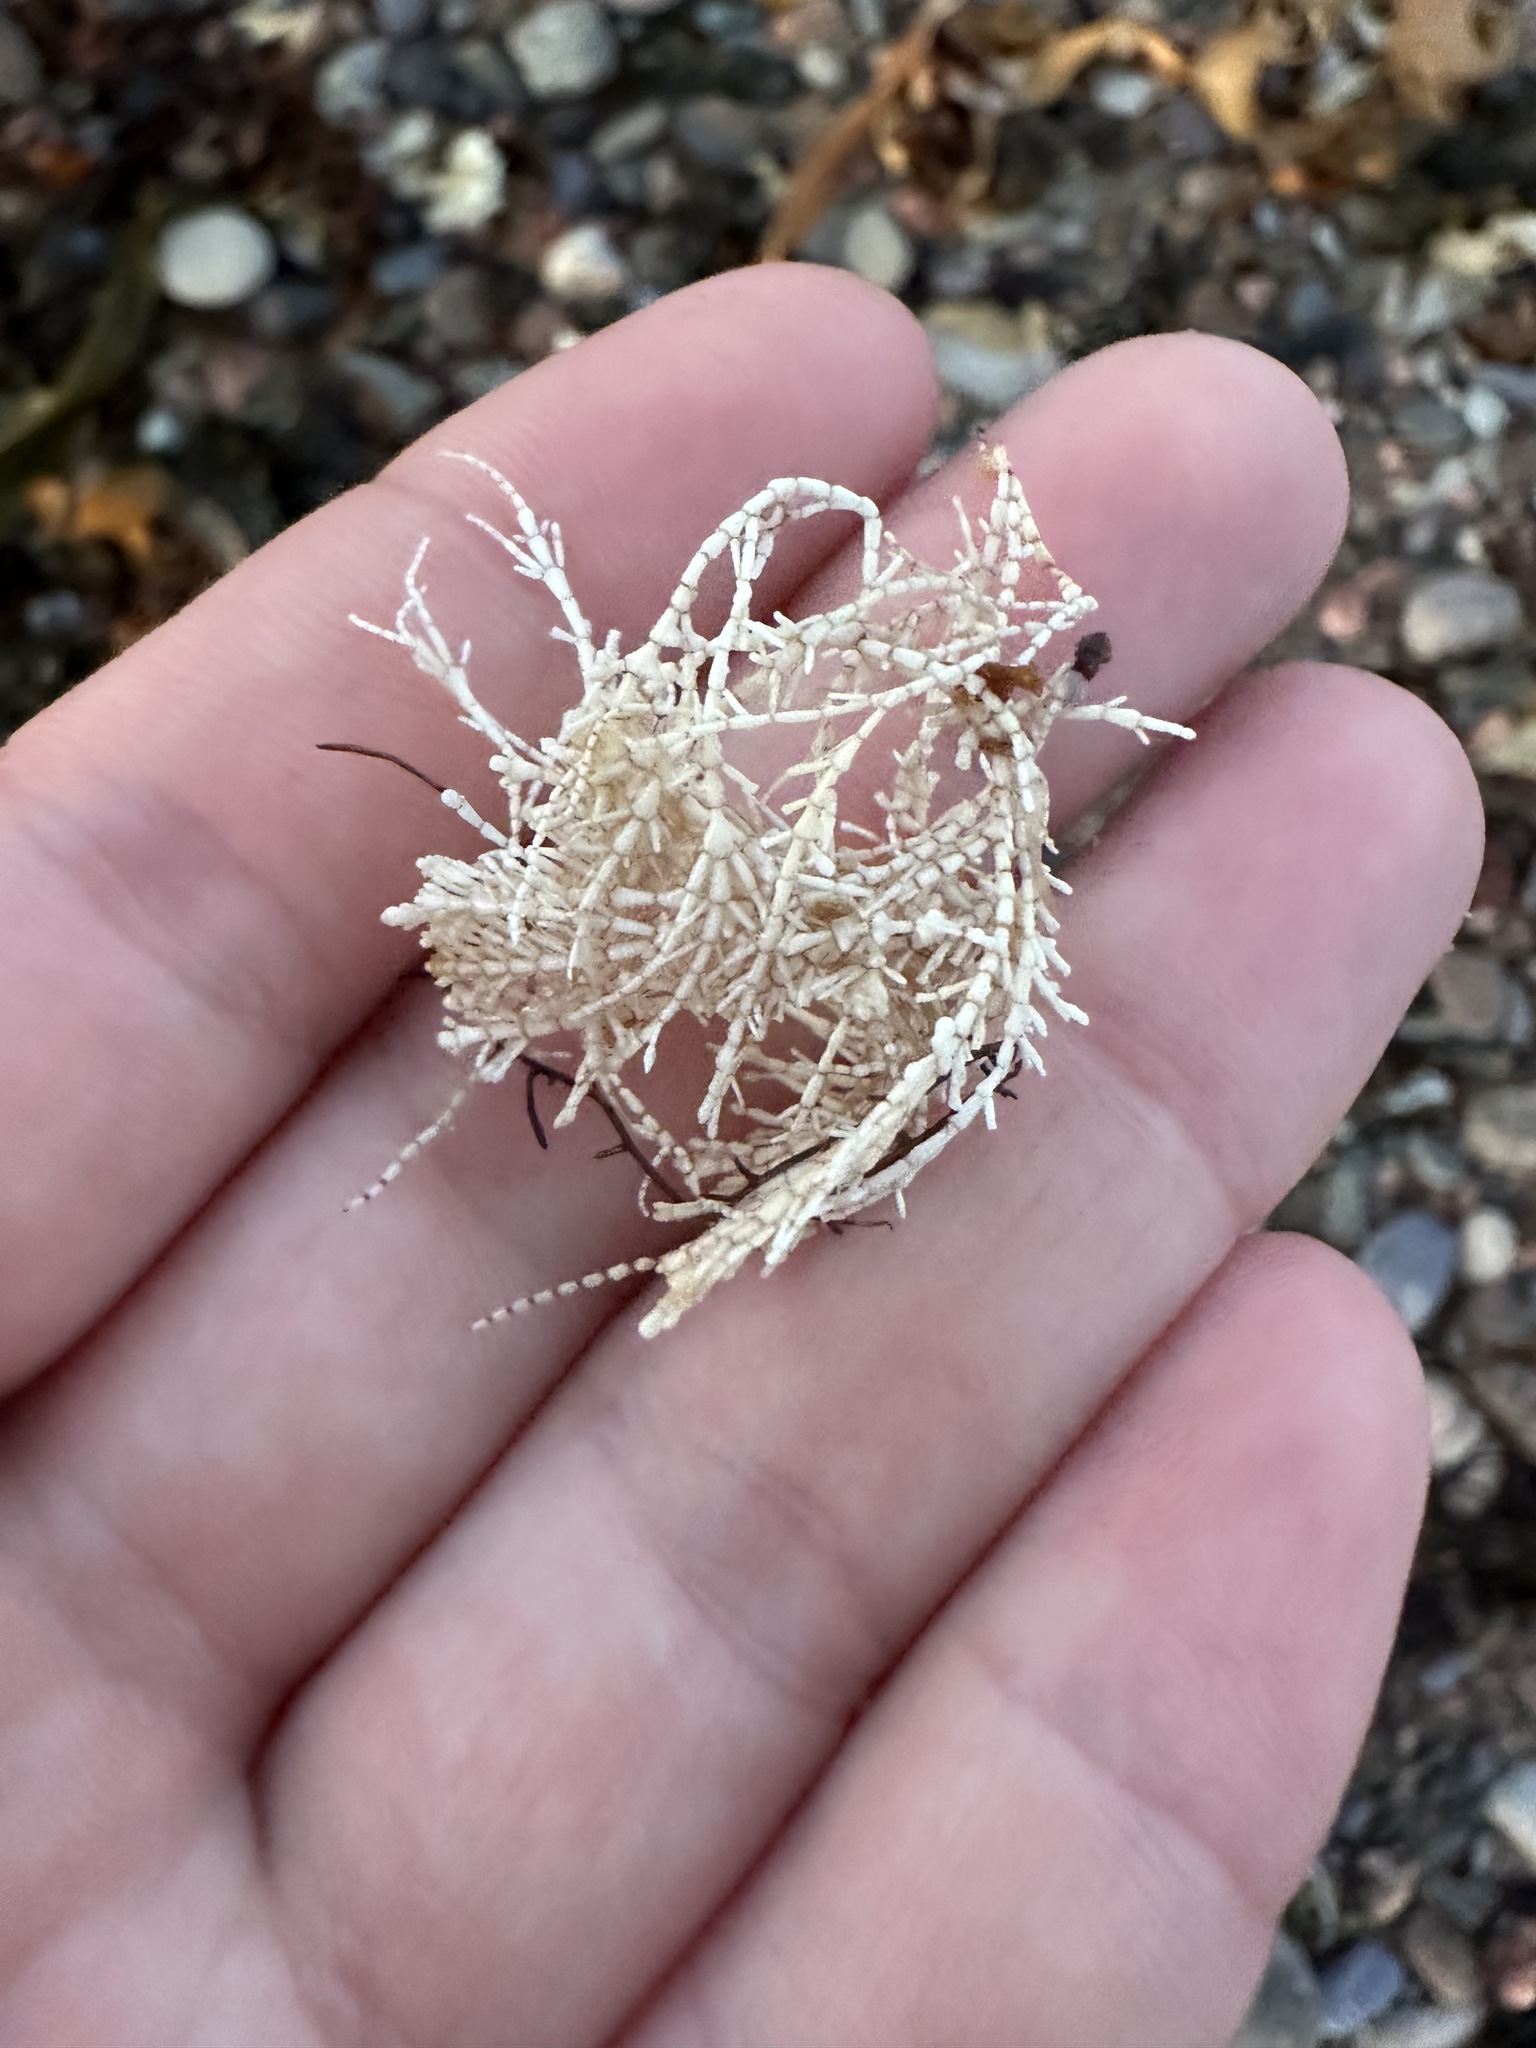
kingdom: Plantae
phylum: Rhodophyta
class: Florideophyceae
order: Corallinales
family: Corallinaceae
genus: Corallina
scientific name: Corallina officinalis
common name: Coral weed
